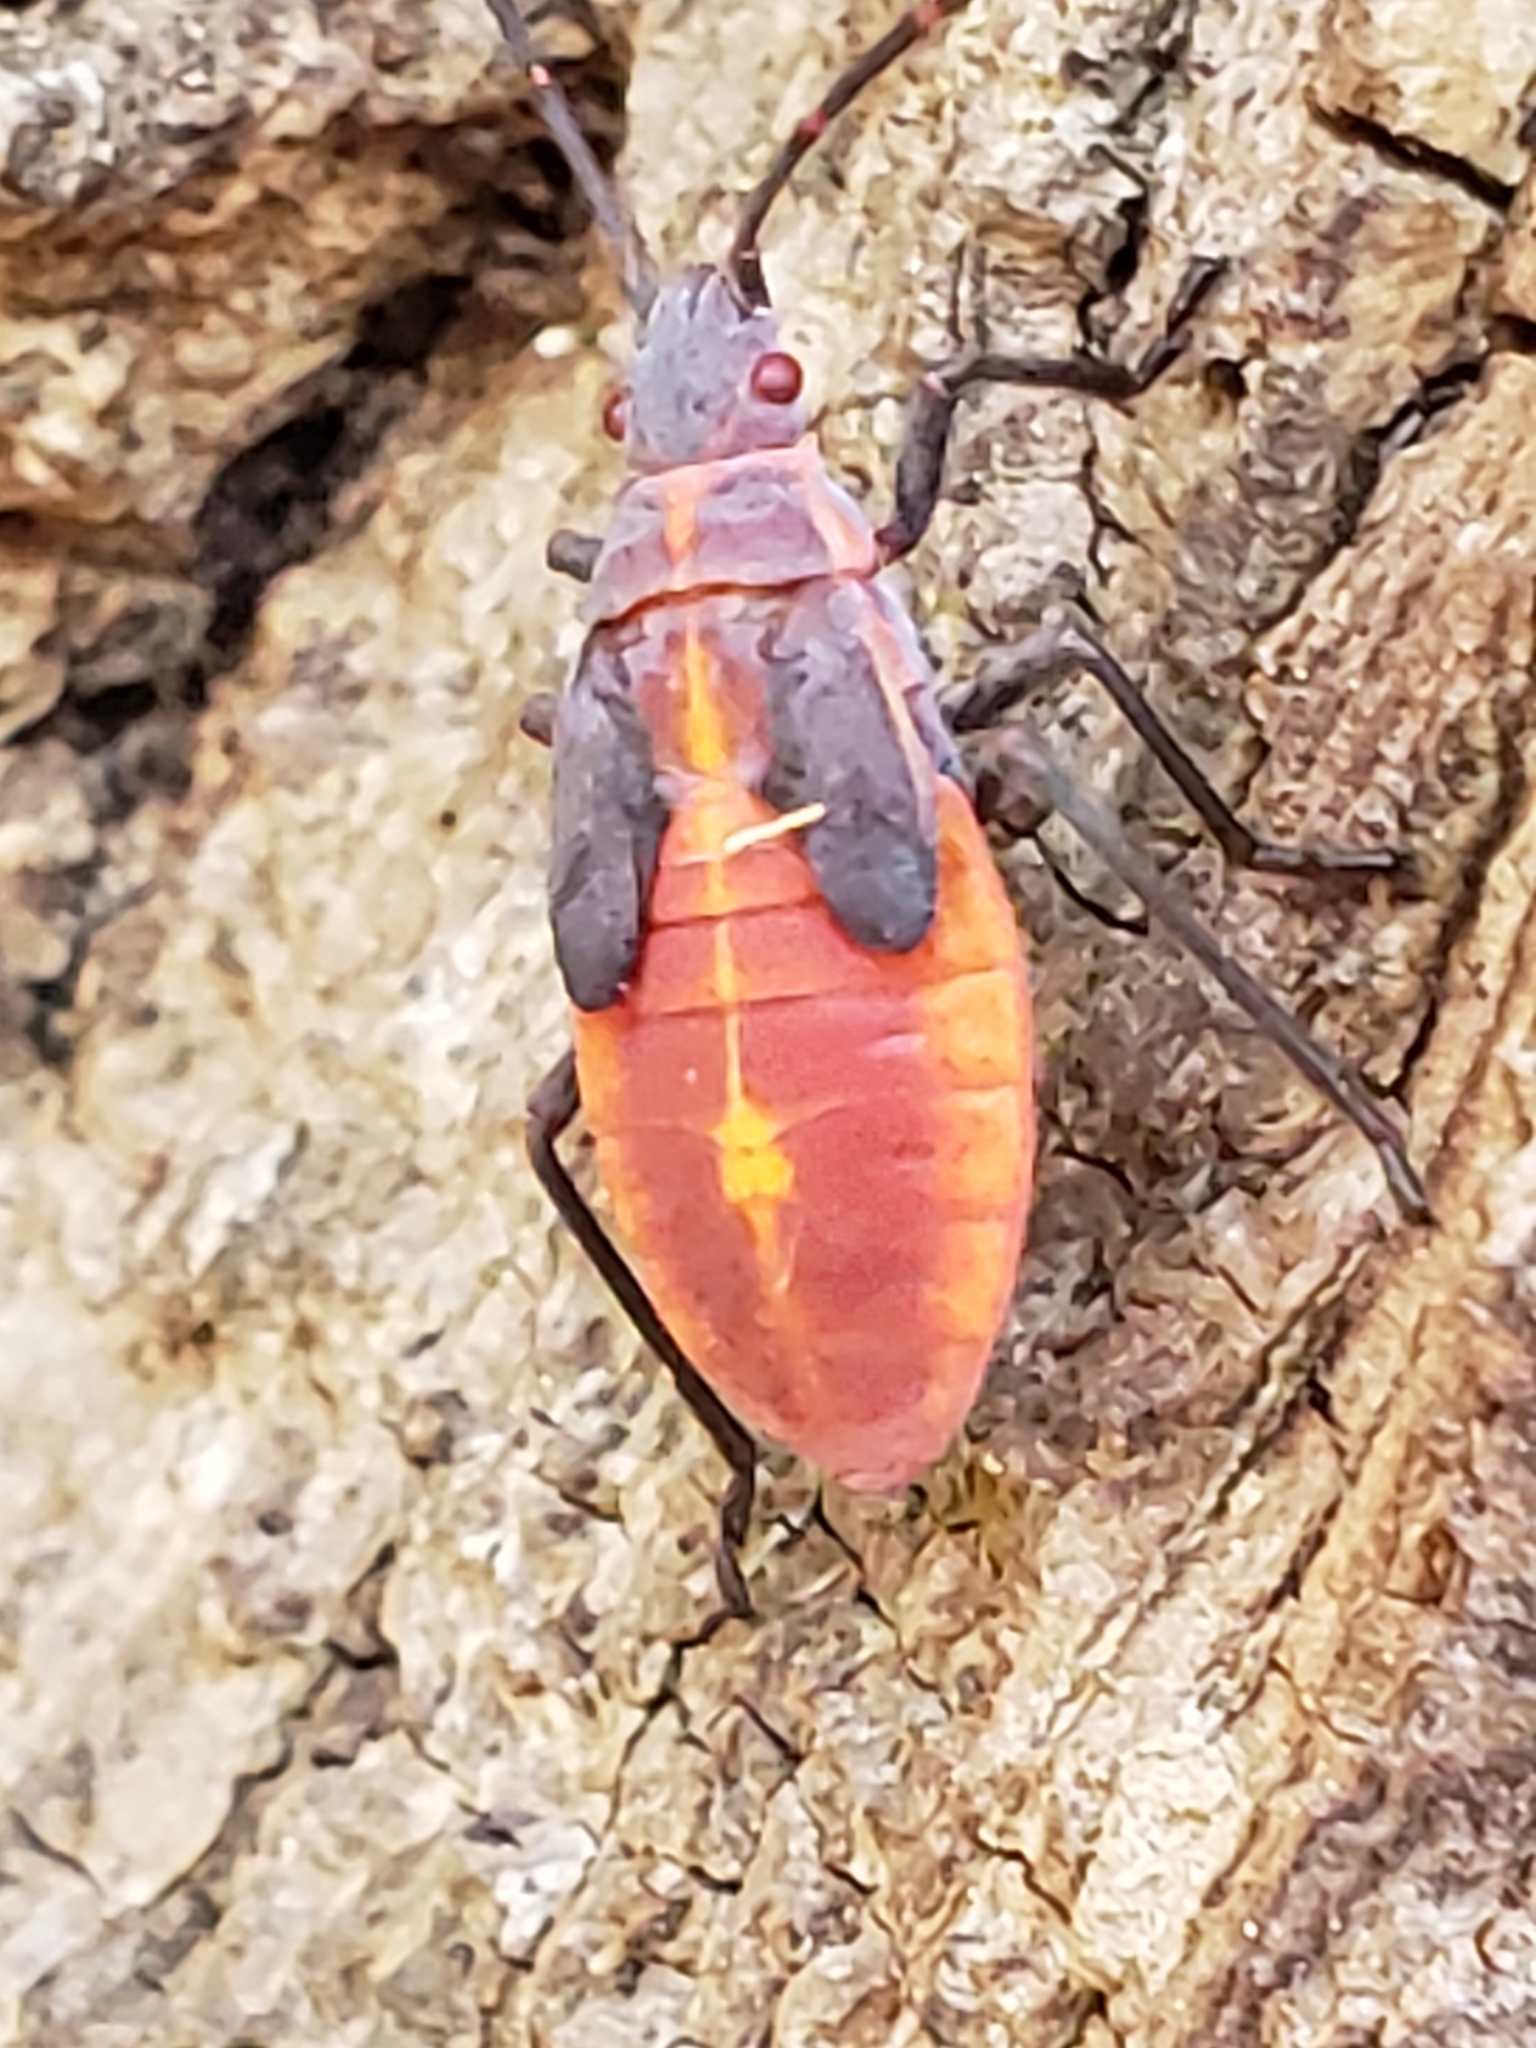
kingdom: Animalia
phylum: Arthropoda
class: Insecta
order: Hemiptera
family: Rhopalidae
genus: Boisea
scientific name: Boisea trivittata
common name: Boxelder bug
